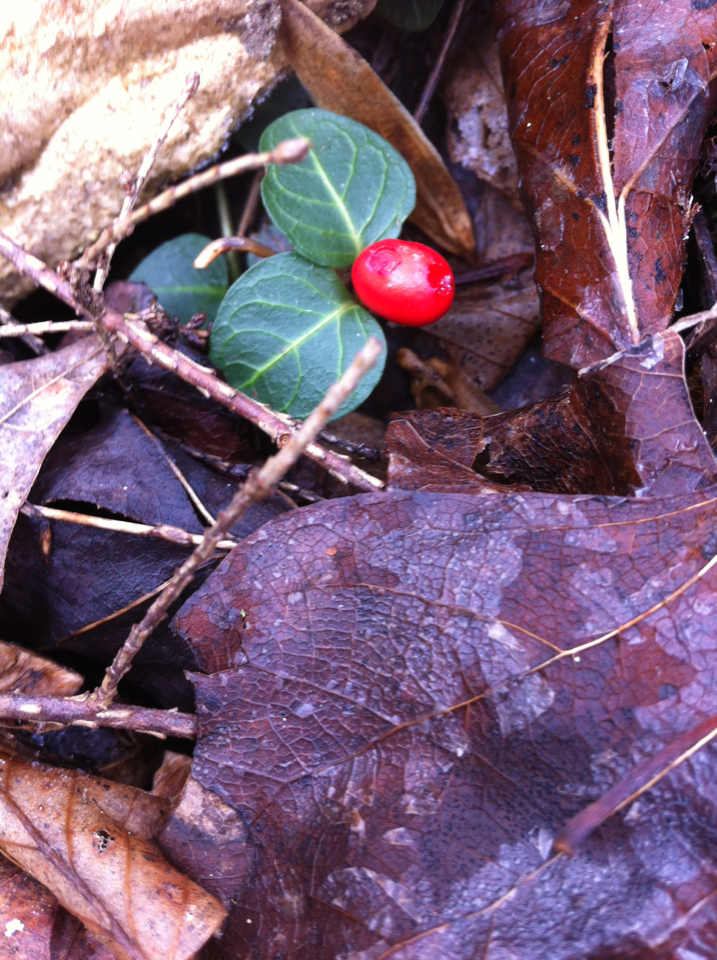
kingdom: Plantae
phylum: Tracheophyta
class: Magnoliopsida
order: Gentianales
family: Rubiaceae
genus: Mitchella
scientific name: Mitchella repens
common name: Partridge-berry
